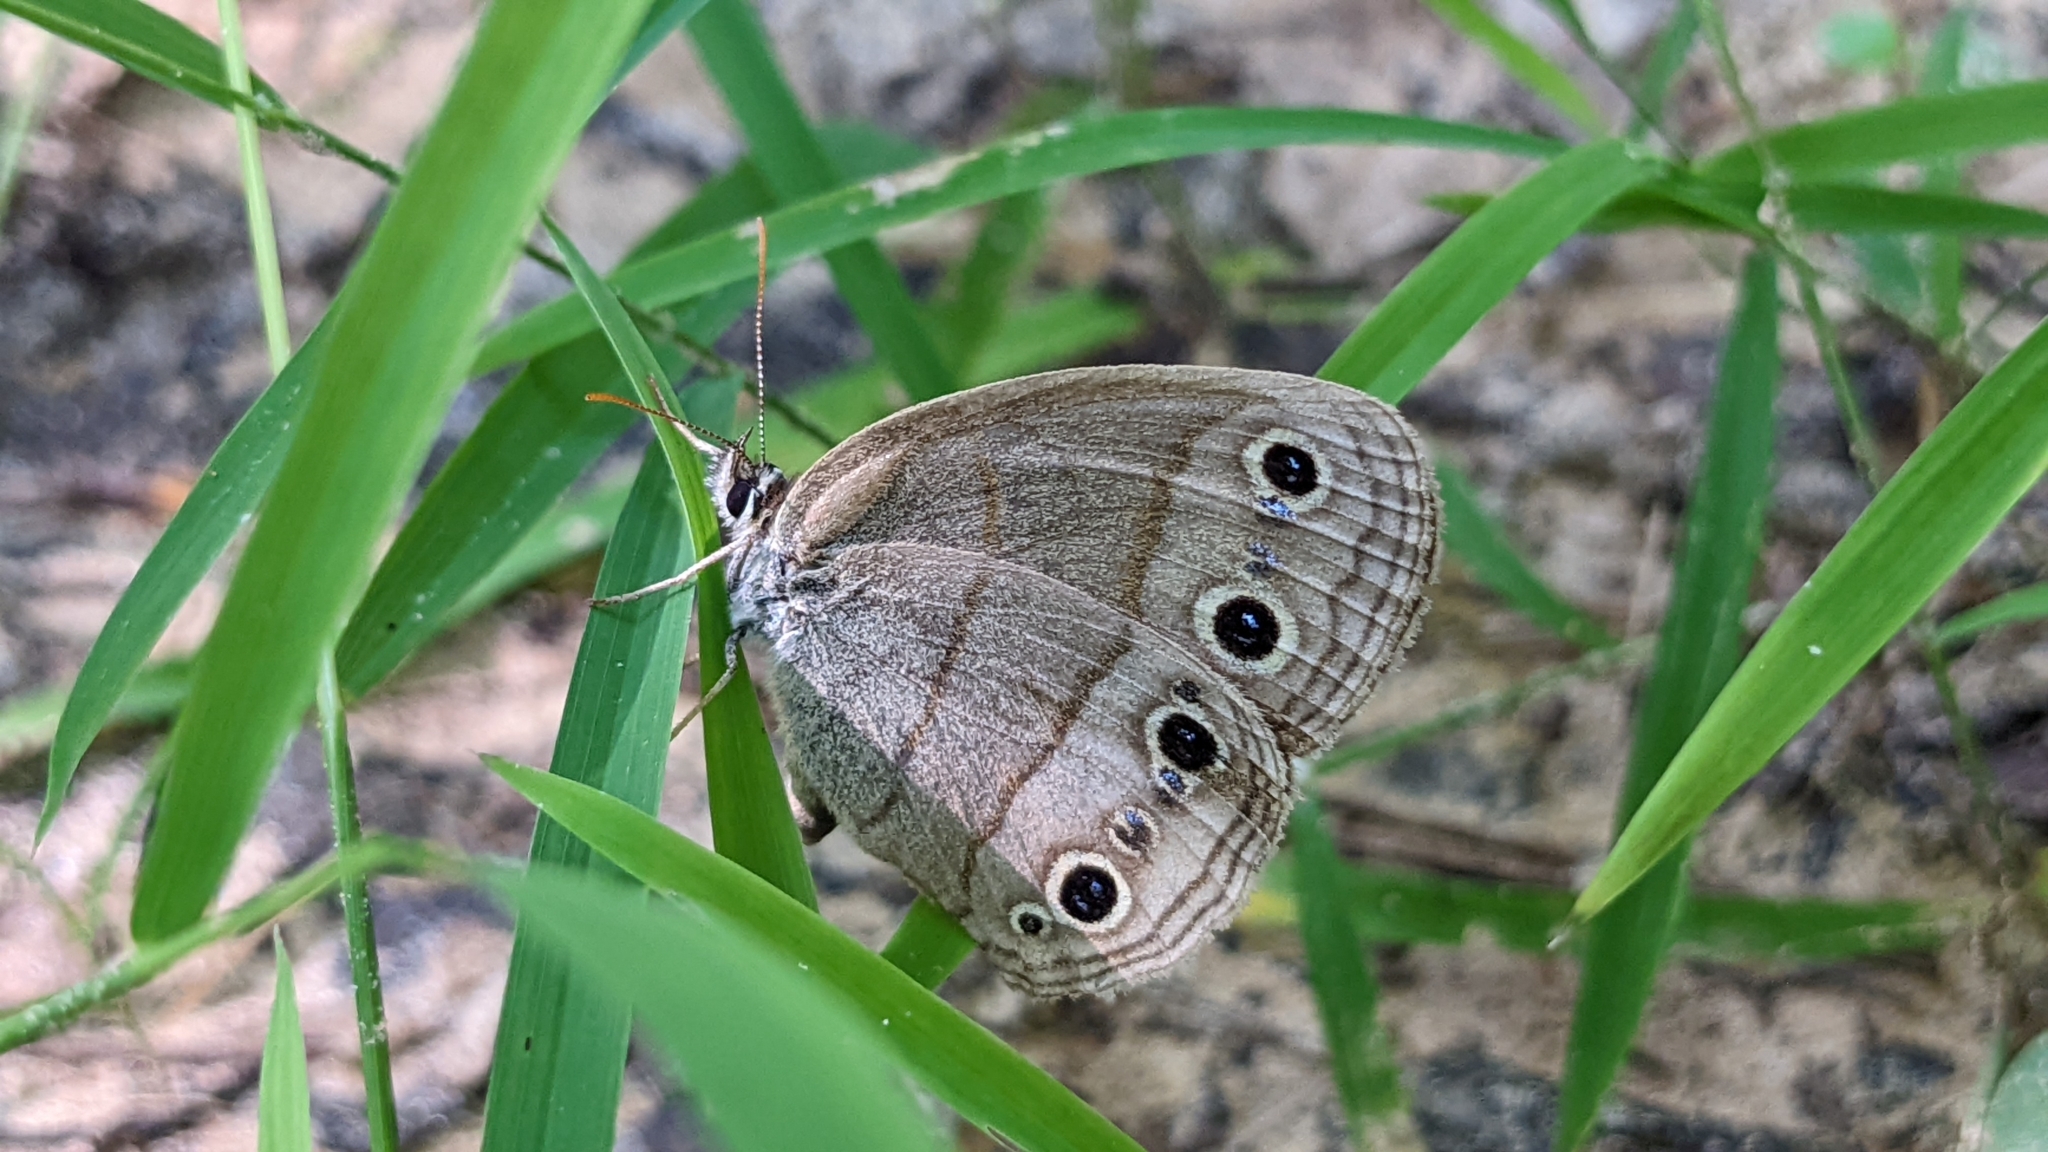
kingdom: Animalia
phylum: Arthropoda
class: Insecta
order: Lepidoptera
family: Nymphalidae
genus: Euptychia
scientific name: Euptychia cymela
